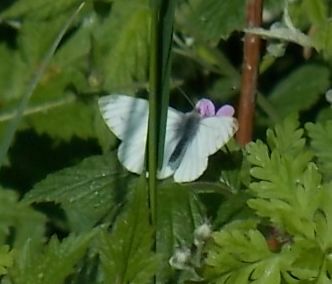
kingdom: Animalia
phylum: Arthropoda
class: Insecta
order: Lepidoptera
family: Pieridae
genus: Pieris
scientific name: Pieris napi
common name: Green-veined white
